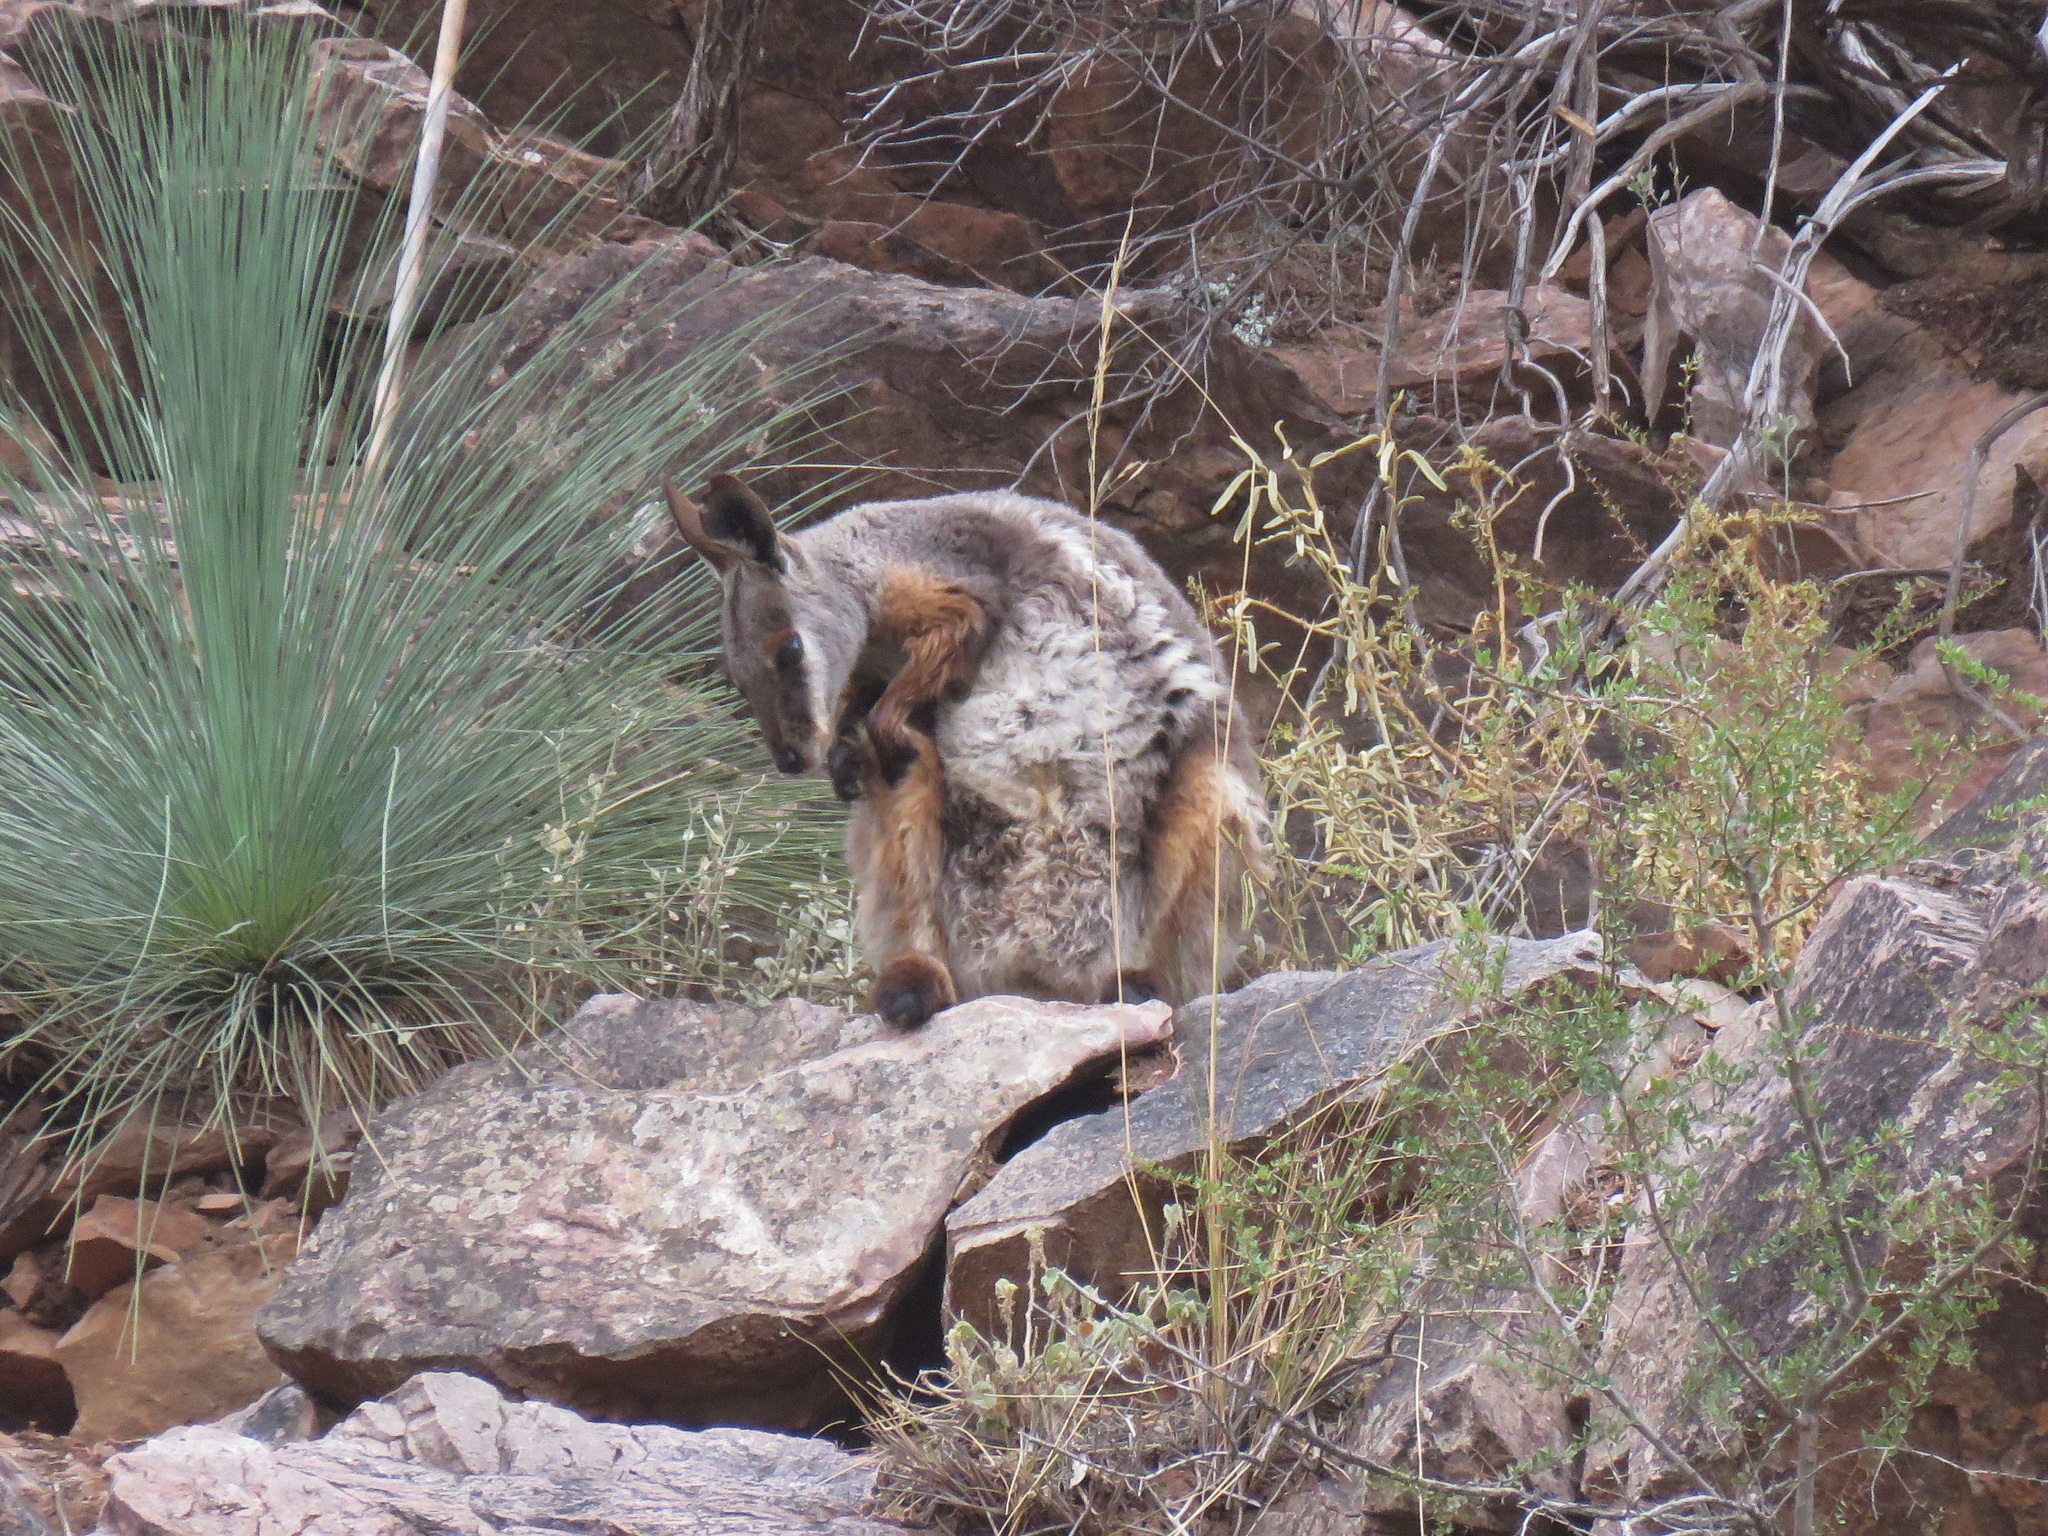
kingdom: Animalia
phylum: Chordata
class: Mammalia
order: Diprotodontia
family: Macropodidae
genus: Petrogale
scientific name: Petrogale xanthopus
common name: Yellow-footed rock-wallaby
